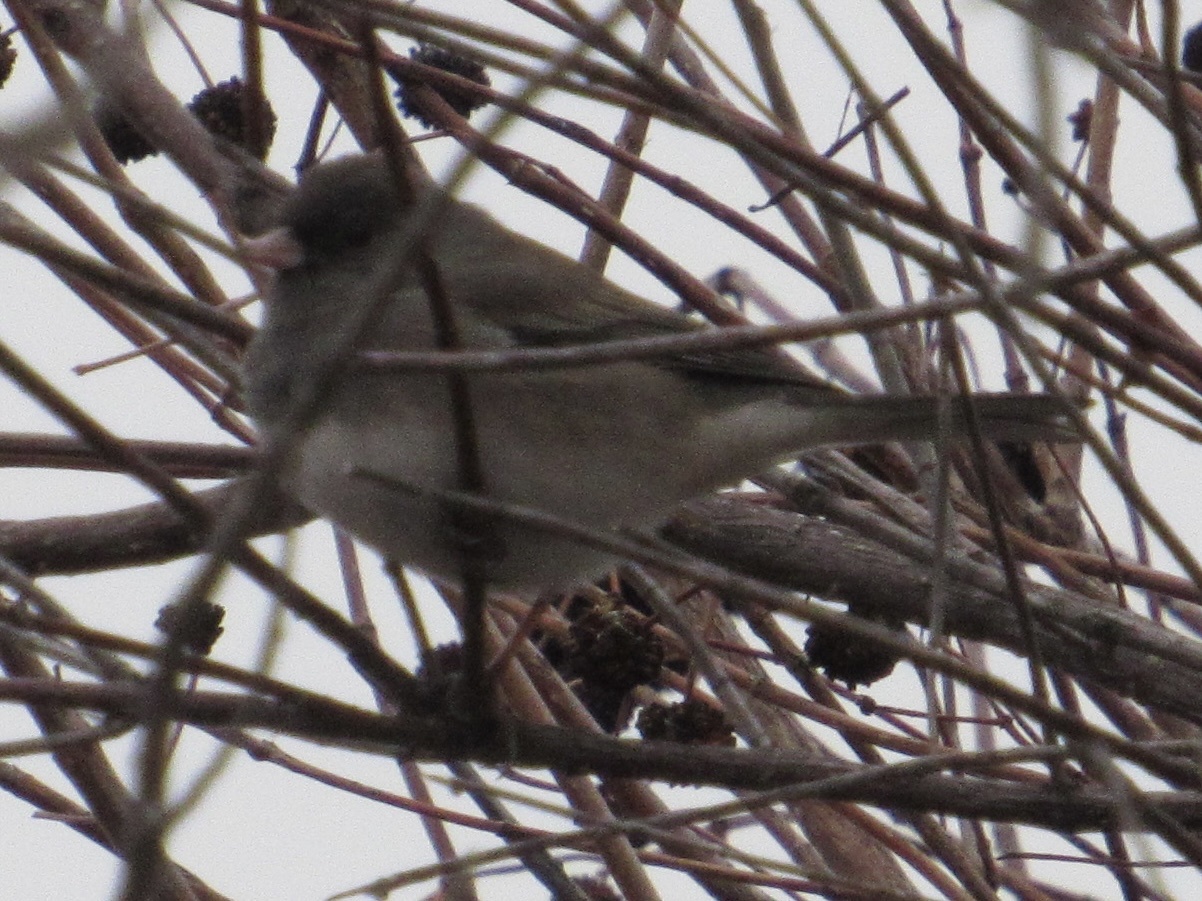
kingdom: Animalia
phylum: Chordata
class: Aves
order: Passeriformes
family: Passerellidae
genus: Junco
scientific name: Junco hyemalis
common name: Dark-eyed junco
